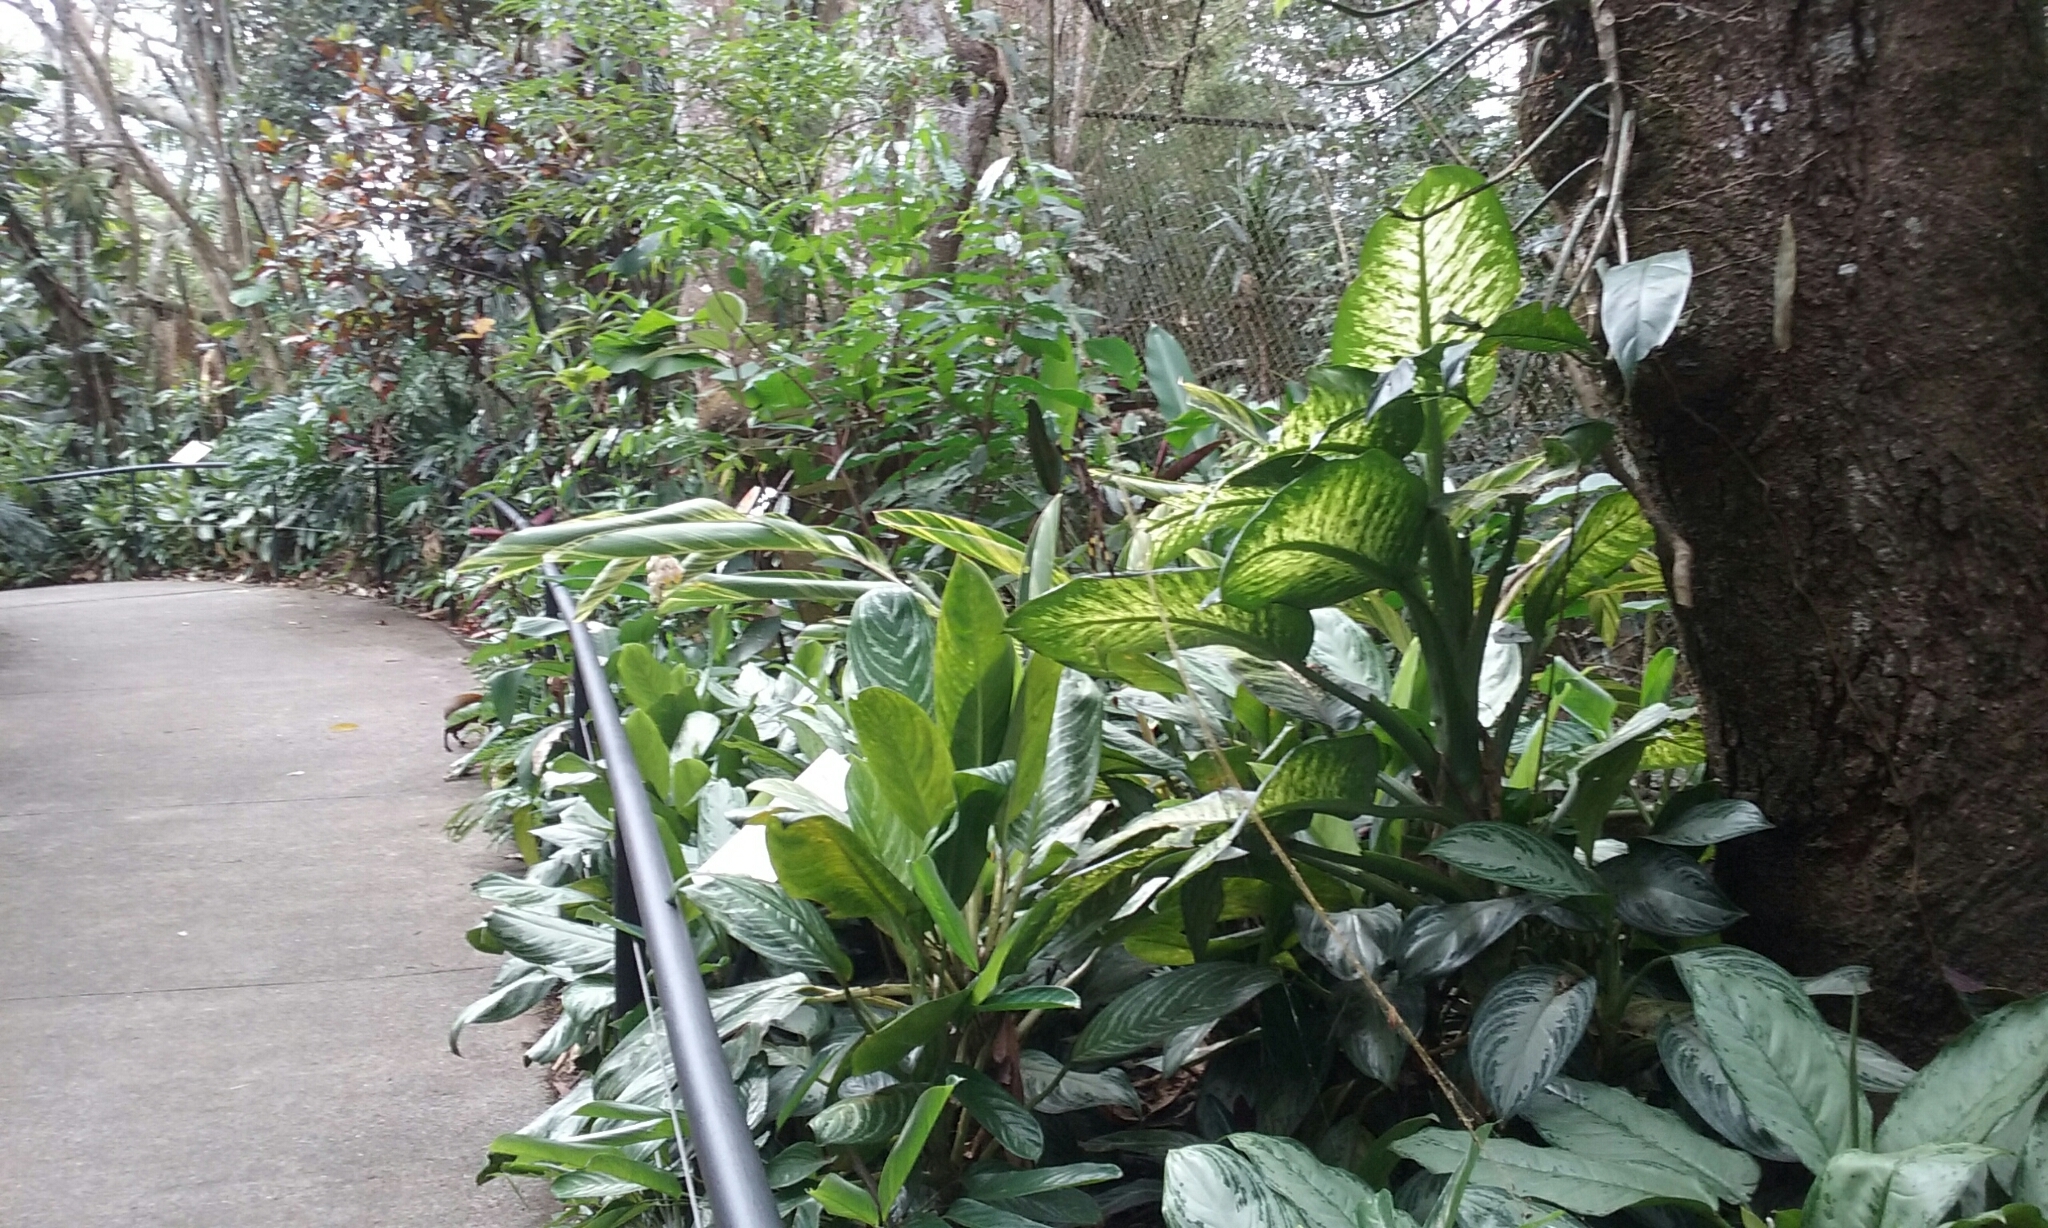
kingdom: Animalia
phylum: Arthropoda
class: Arachnida
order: Araneae
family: Araneidae
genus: Trichonephila
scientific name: Trichonephila clavipes
